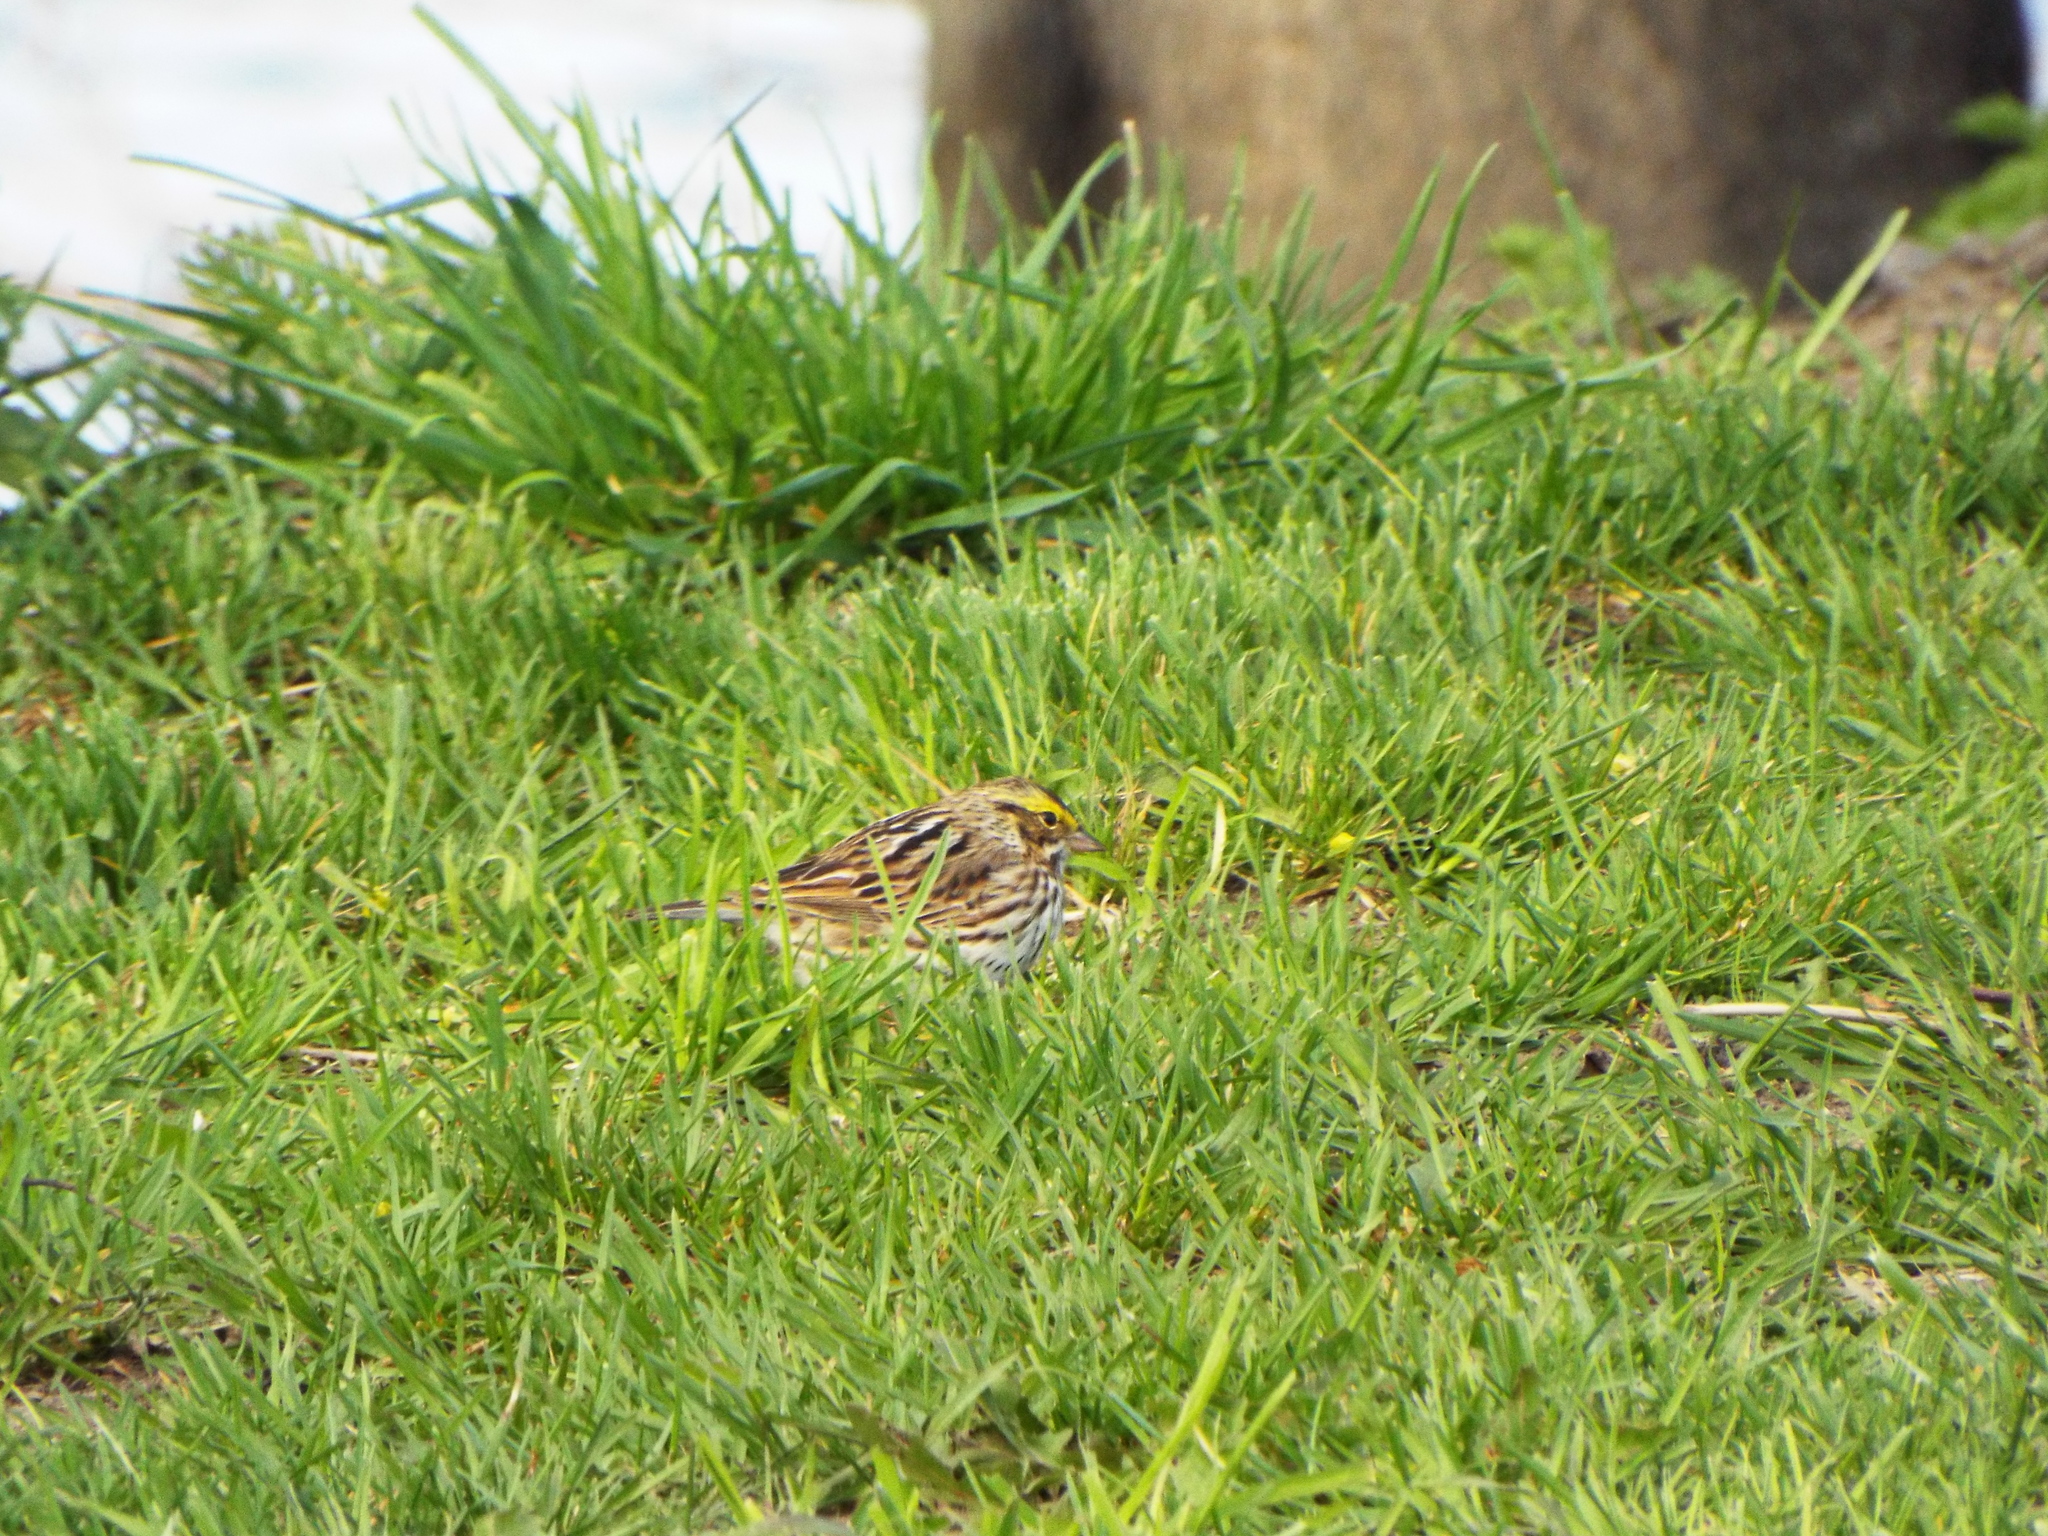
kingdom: Animalia
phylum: Chordata
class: Aves
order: Passeriformes
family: Passerellidae
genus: Passerculus
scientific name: Passerculus sandwichensis
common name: Savannah sparrow
